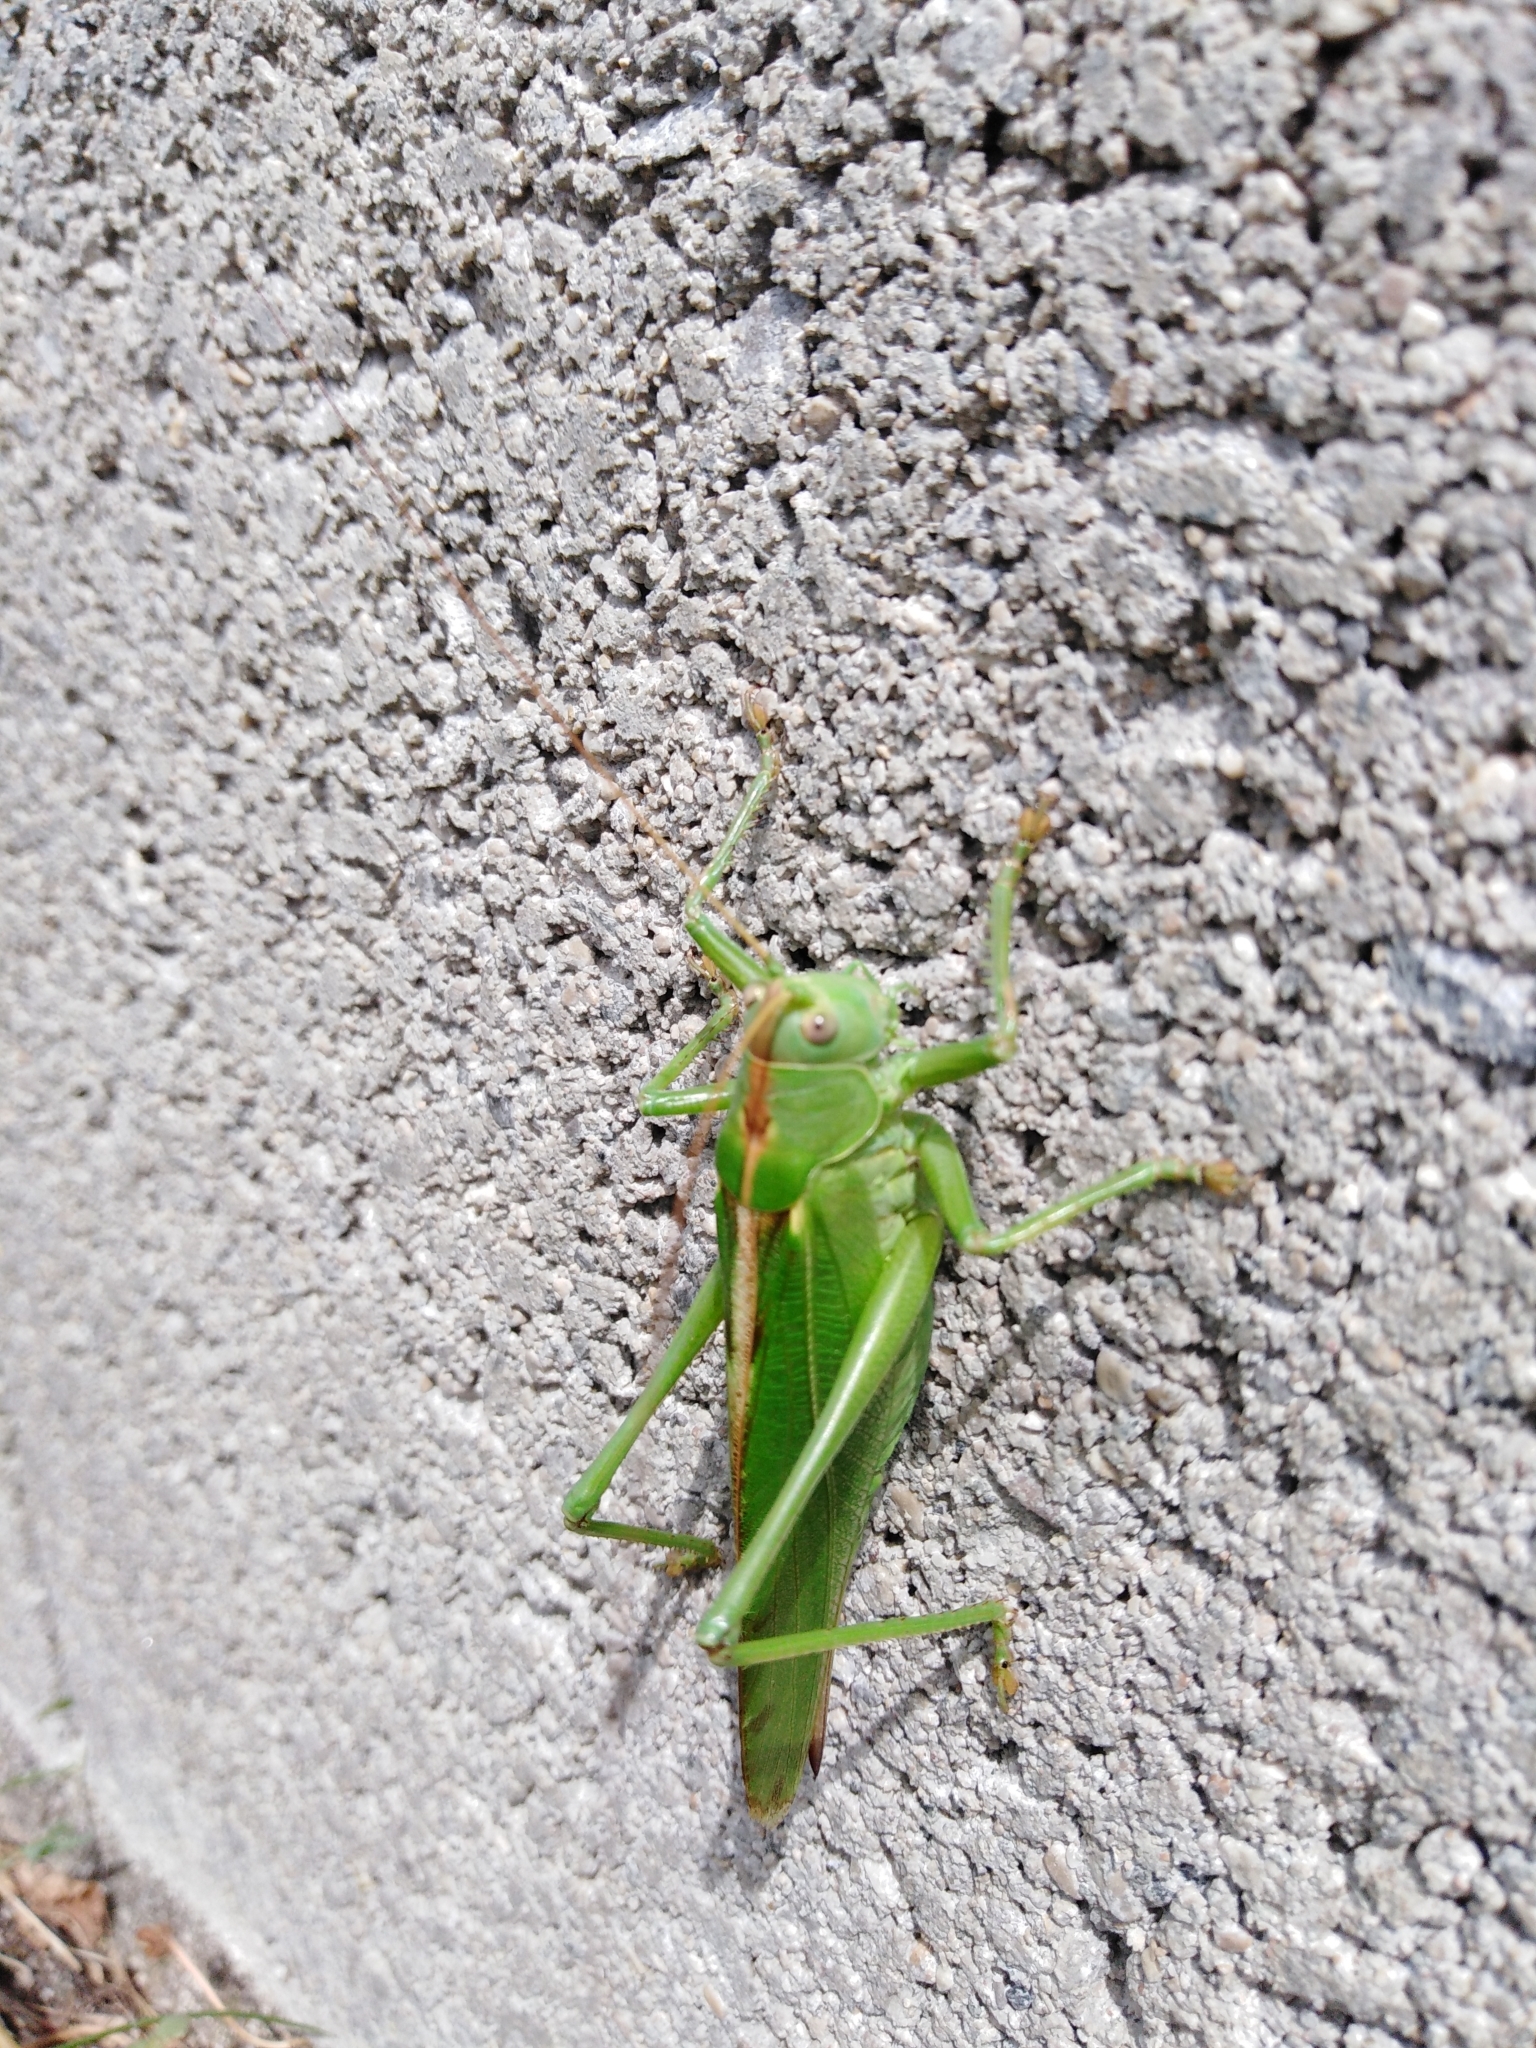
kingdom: Animalia
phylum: Arthropoda
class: Insecta
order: Orthoptera
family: Tettigoniidae
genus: Tettigonia
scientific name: Tettigonia viridissima
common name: Great green bush-cricket
